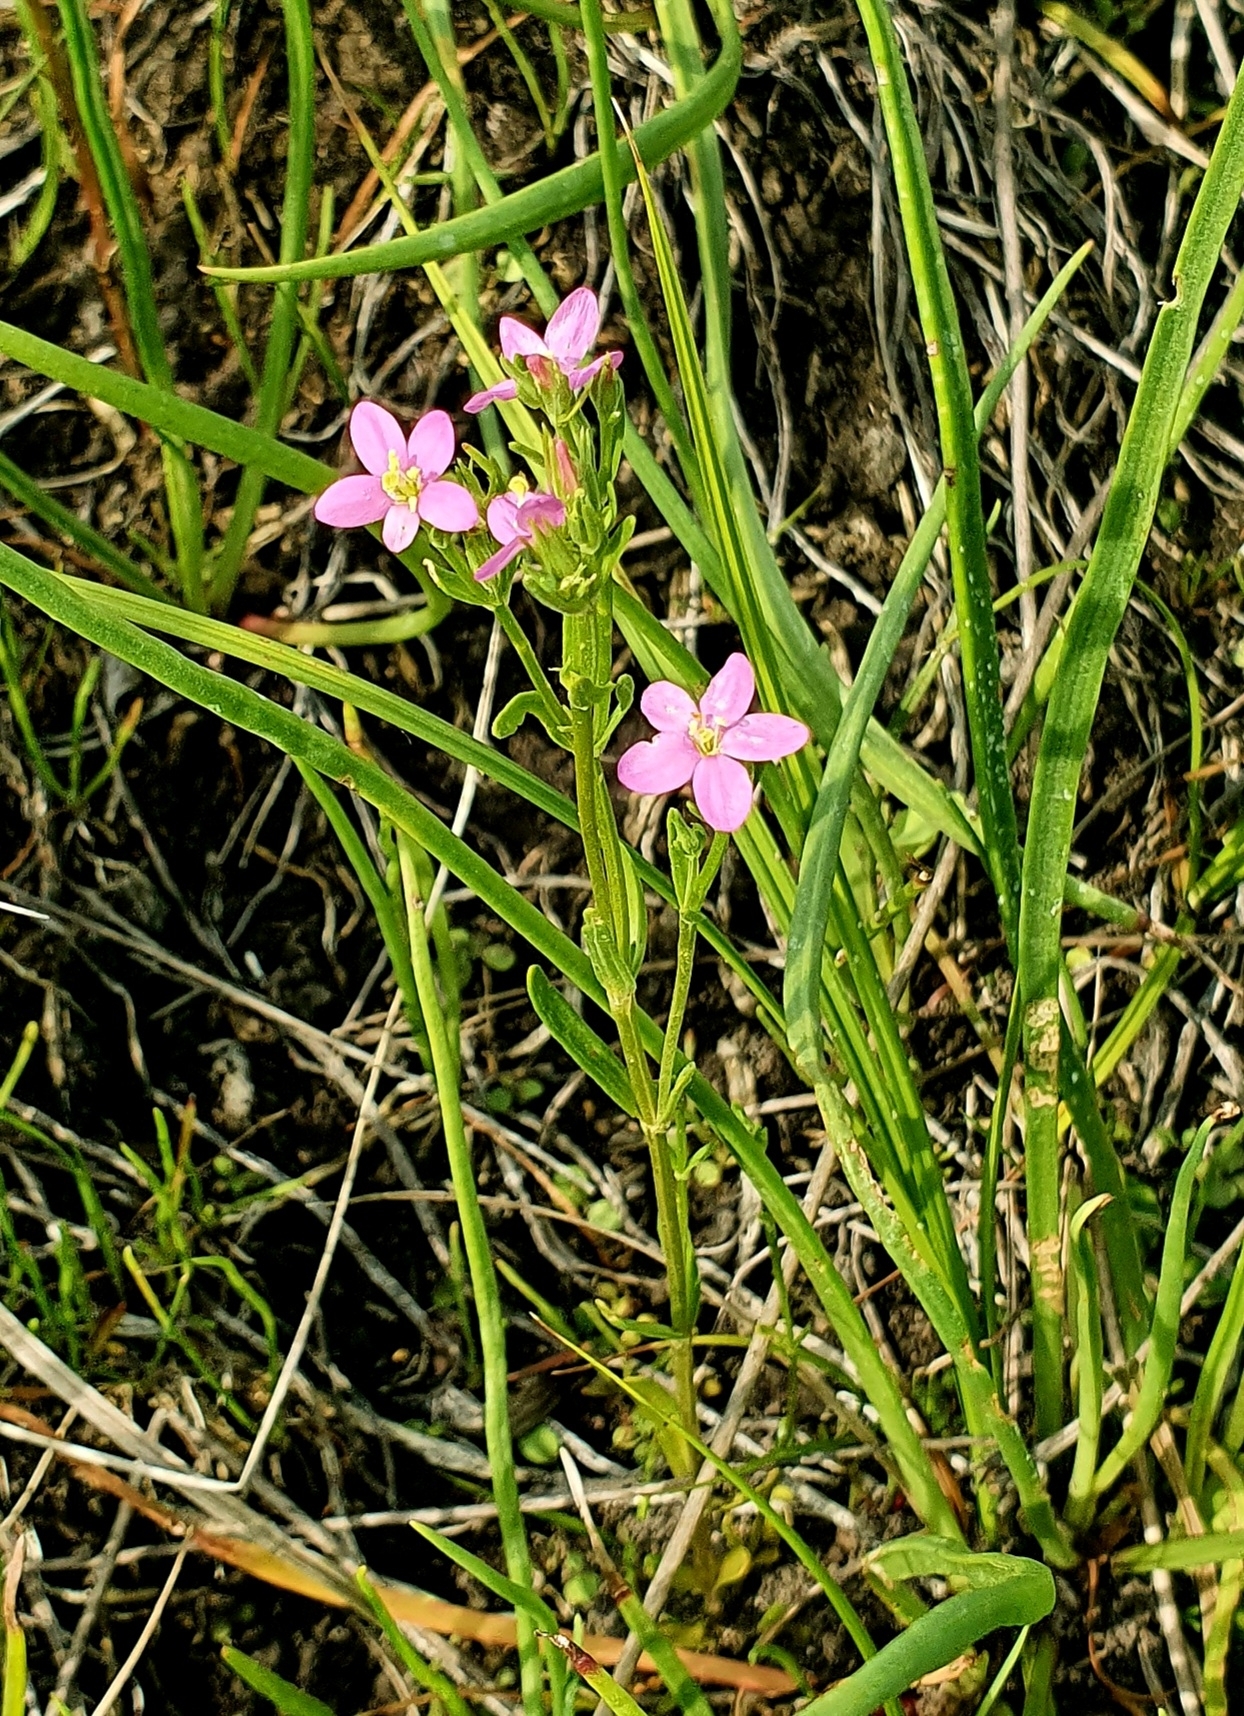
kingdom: Plantae
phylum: Tracheophyta
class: Magnoliopsida
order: Gentianales
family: Gentianaceae
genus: Centaurium
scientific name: Centaurium littorale
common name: Seaside centaury
